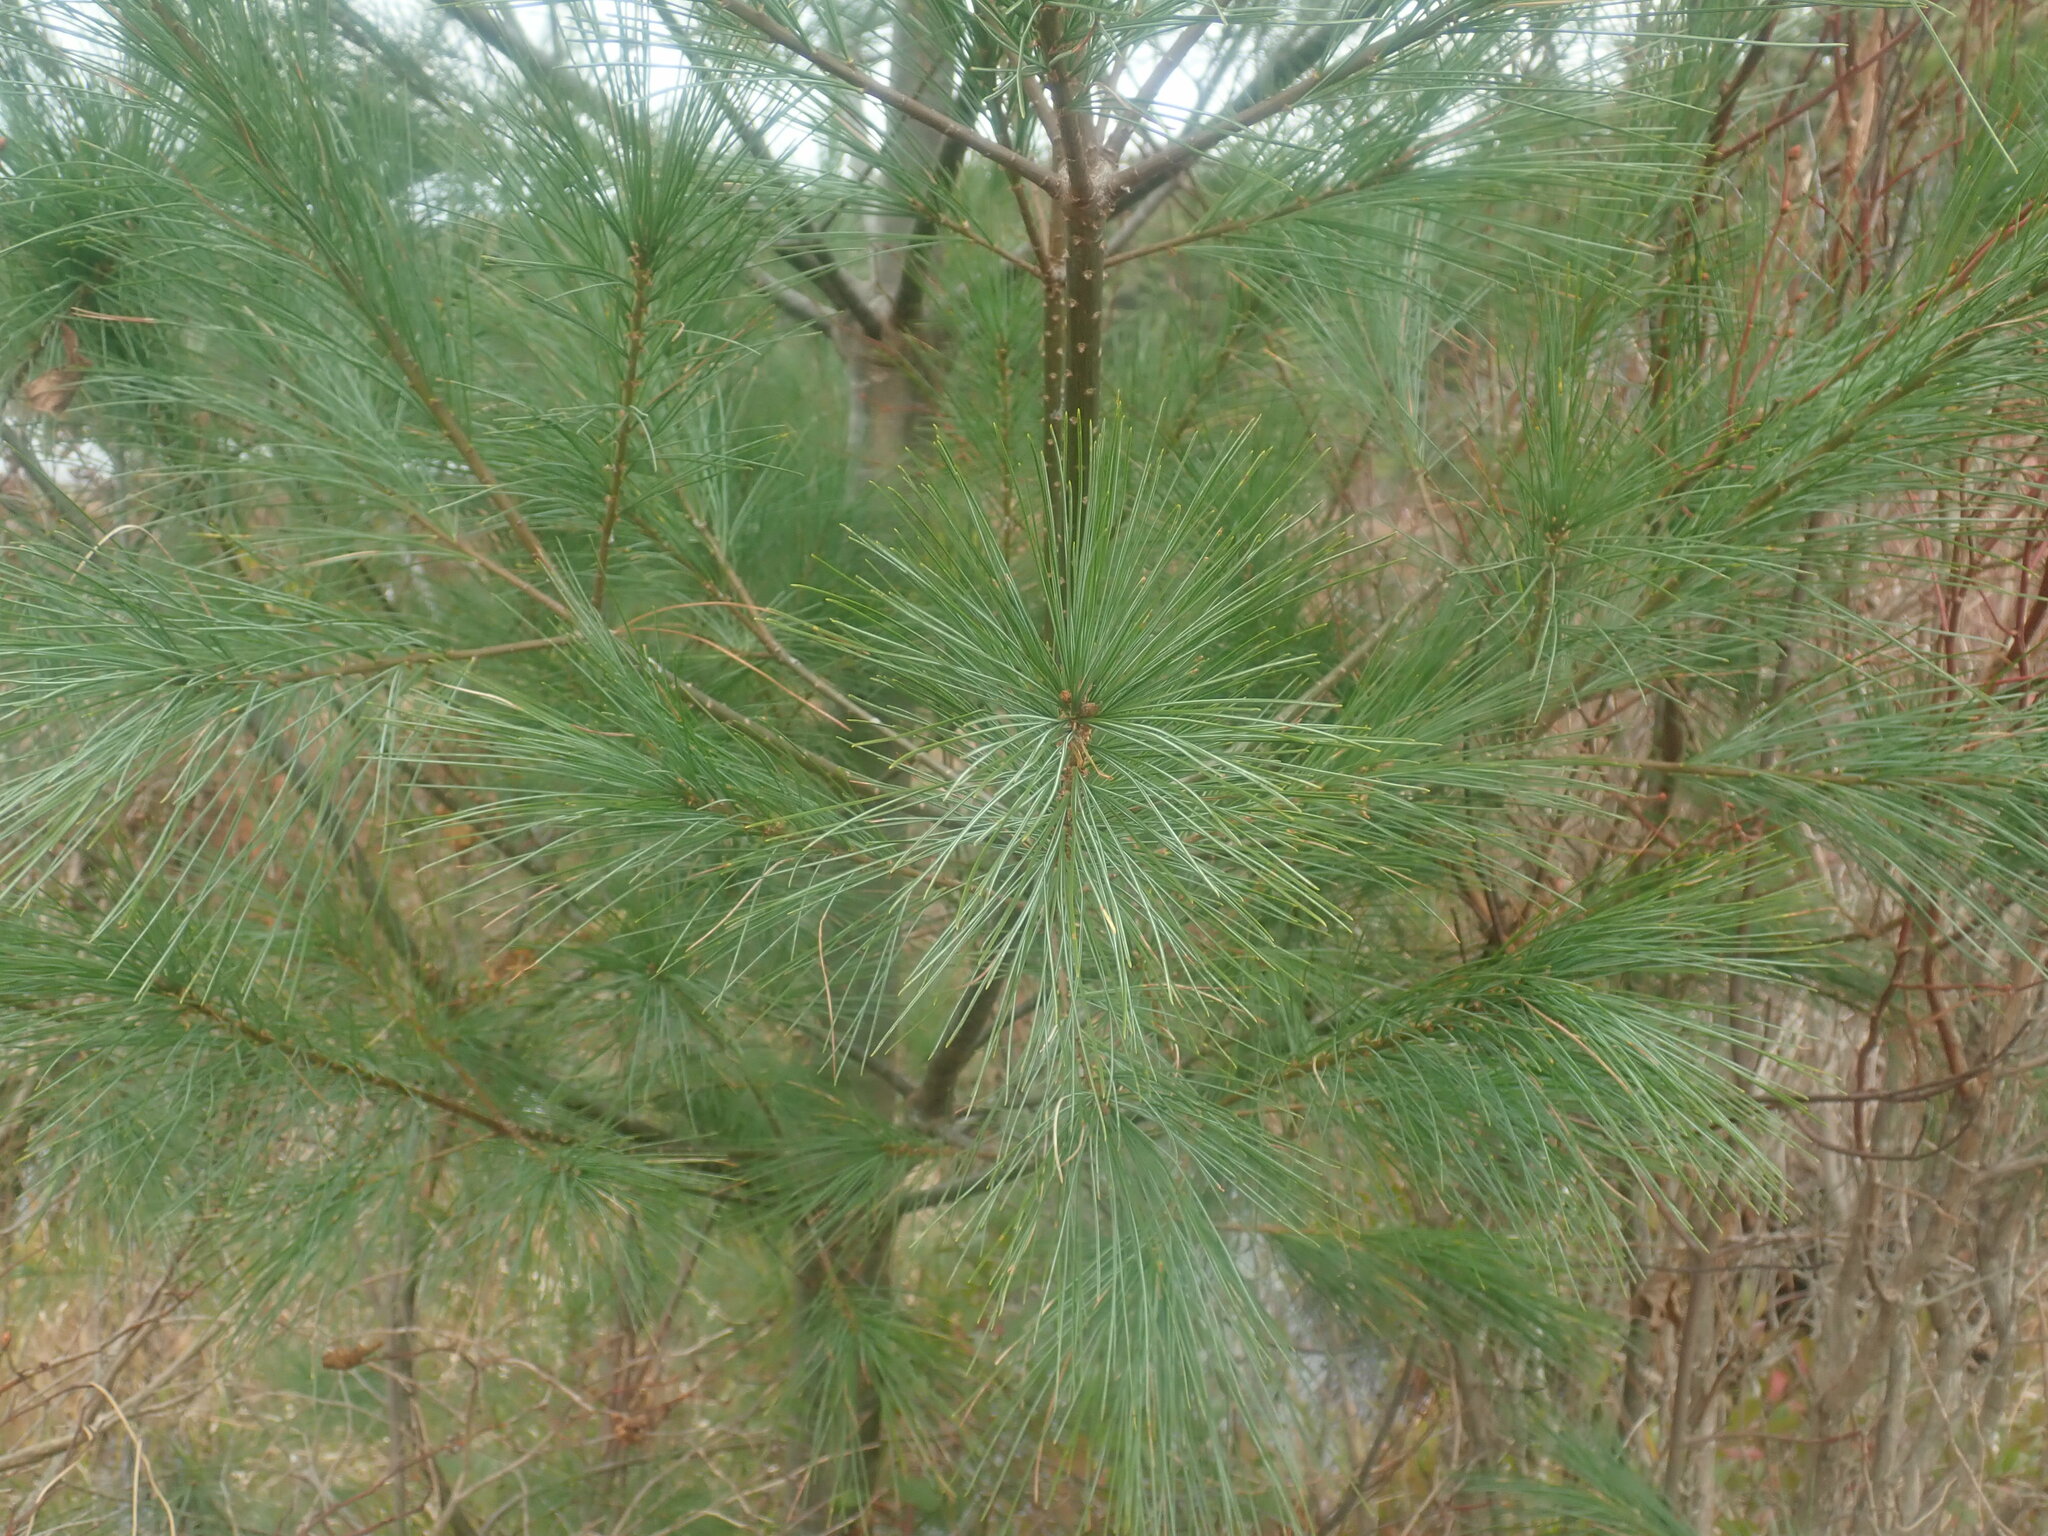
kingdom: Plantae
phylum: Tracheophyta
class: Pinopsida
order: Pinales
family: Pinaceae
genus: Pinus
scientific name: Pinus strobus
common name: Weymouth pine
